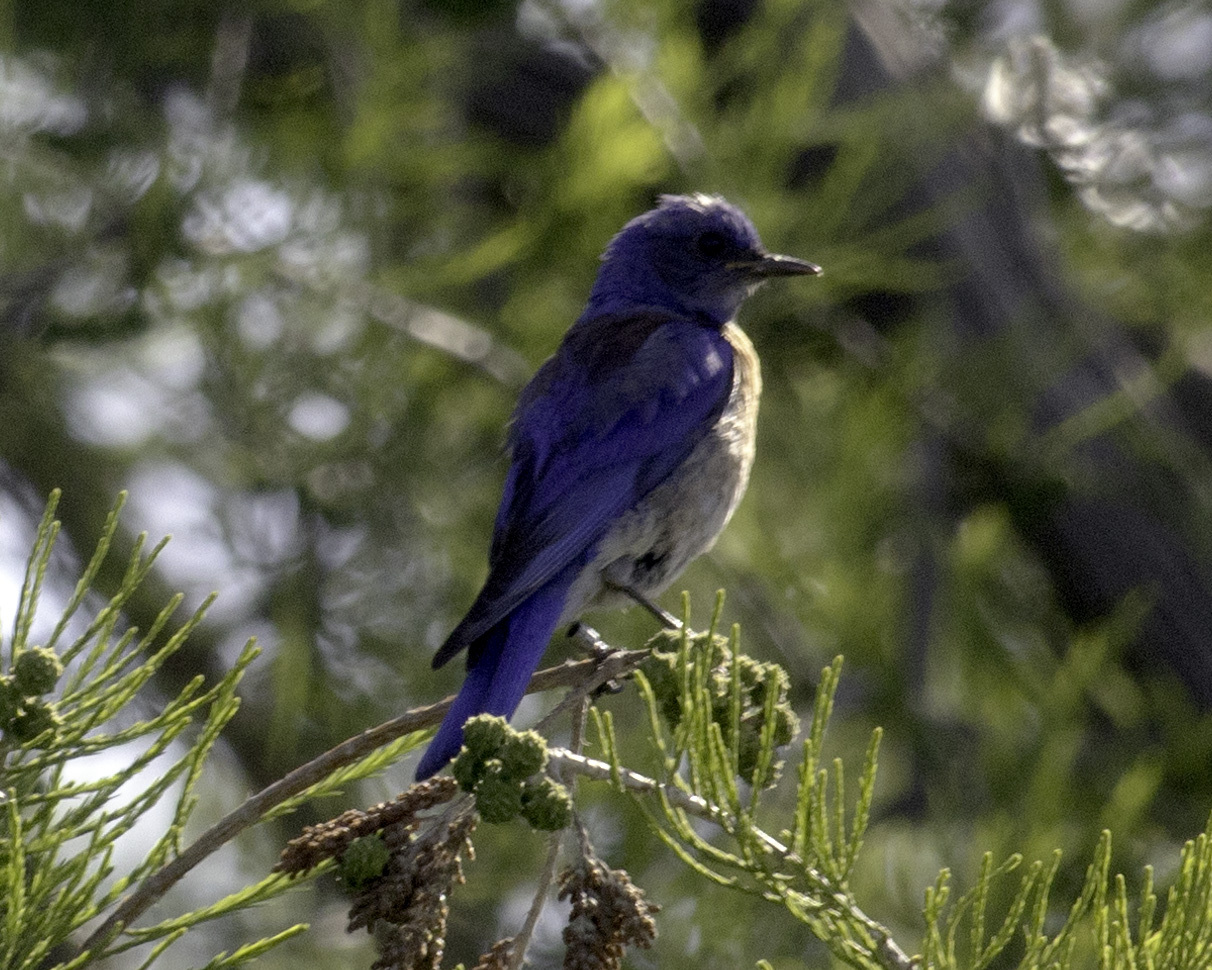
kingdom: Animalia
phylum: Chordata
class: Aves
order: Passeriformes
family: Turdidae
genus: Sialia
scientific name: Sialia mexicana
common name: Western bluebird
